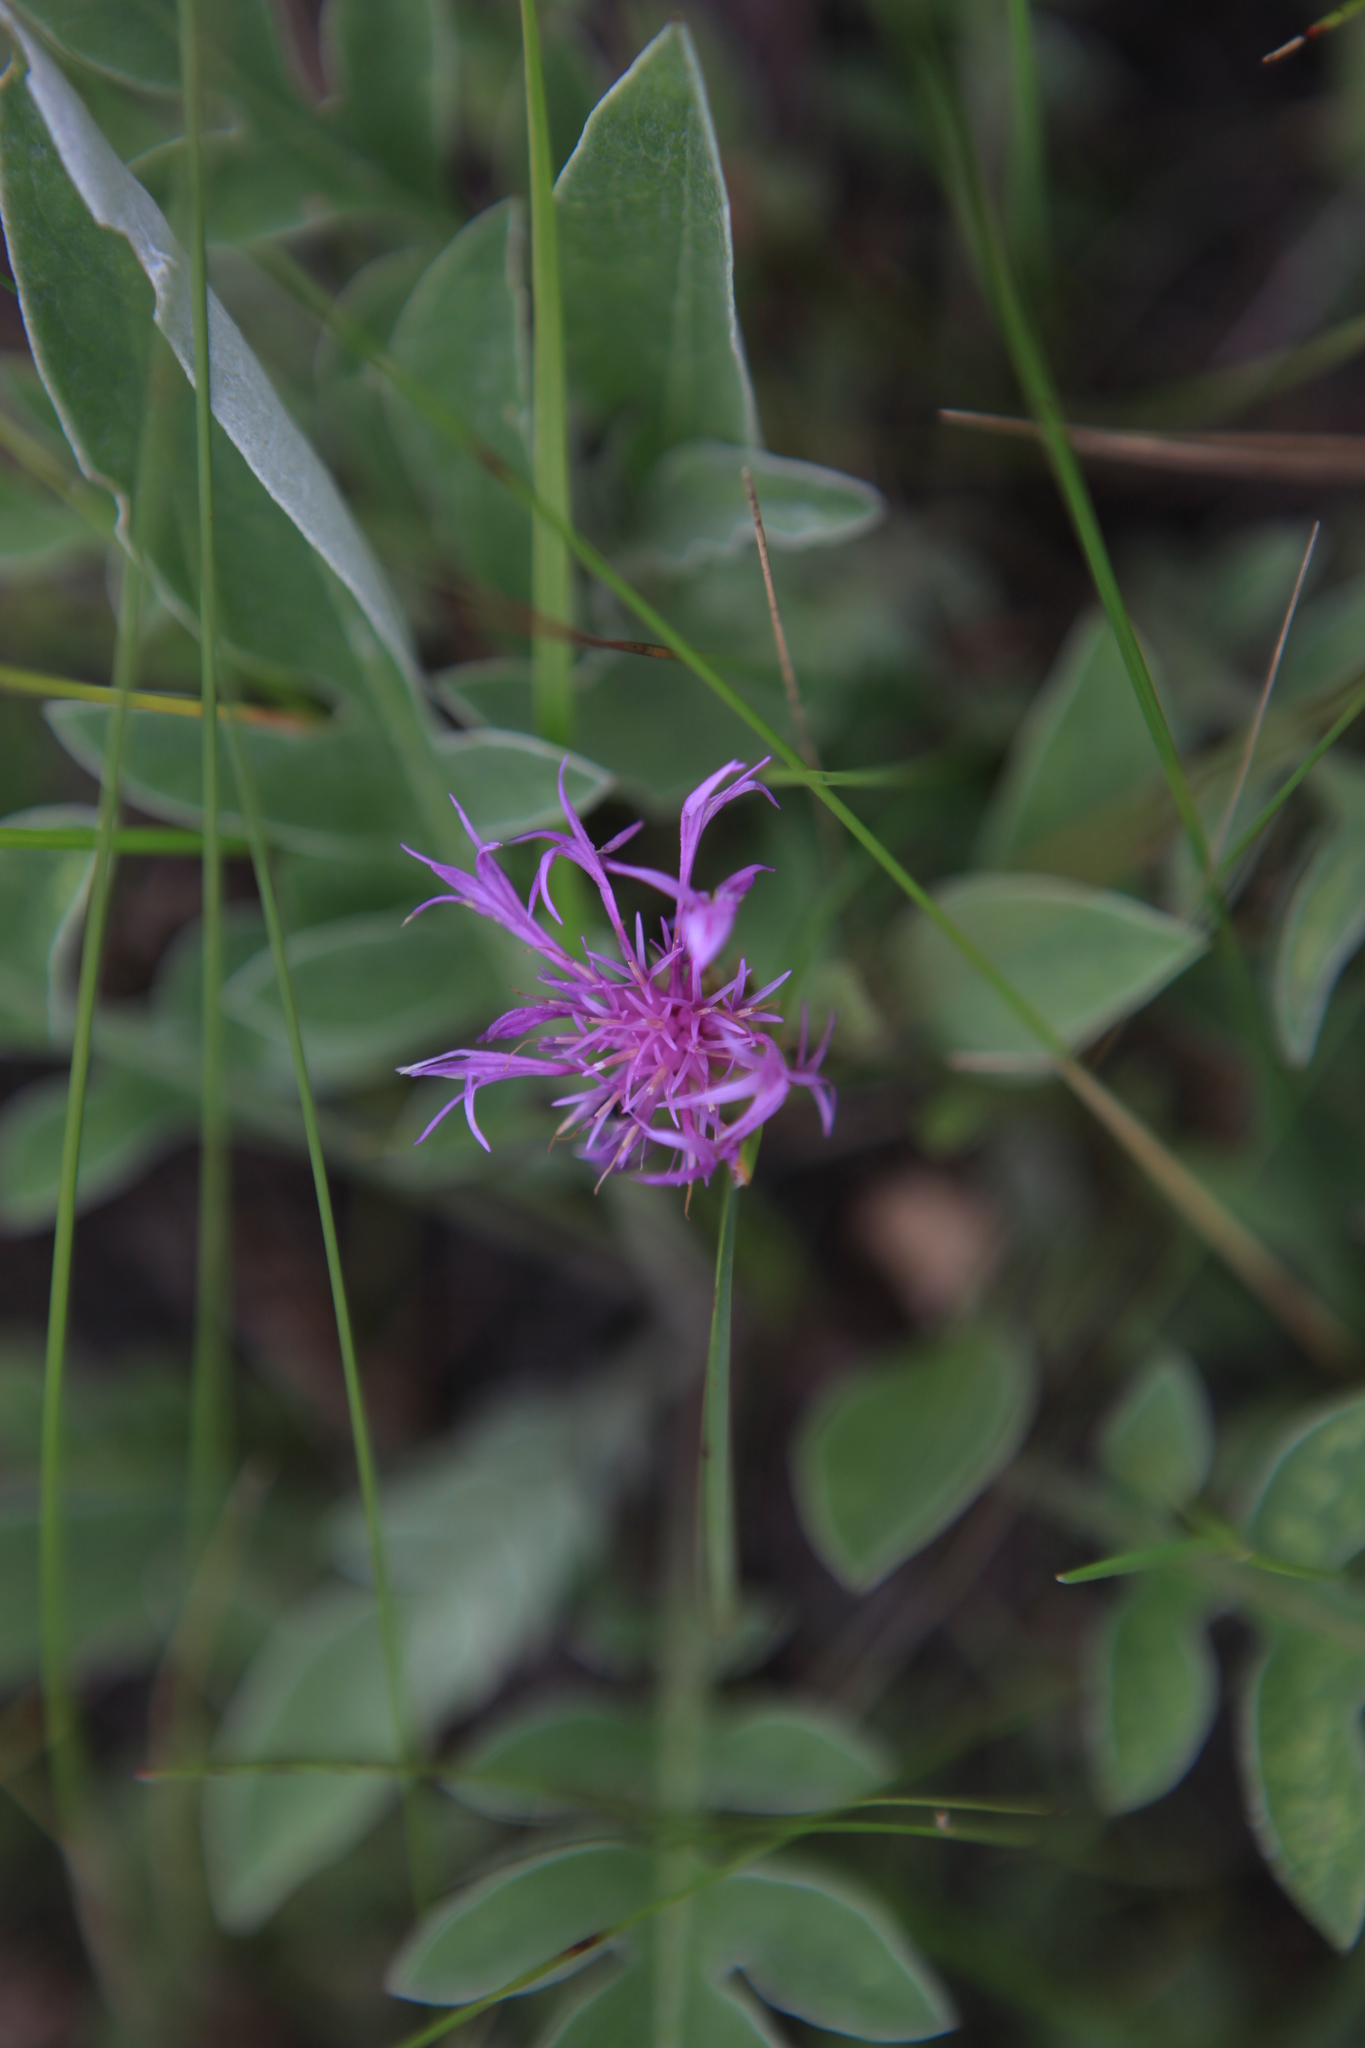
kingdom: Plantae
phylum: Tracheophyta
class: Magnoliopsida
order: Asterales
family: Asteraceae
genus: Psephellus
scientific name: Psephellus sibiricus
